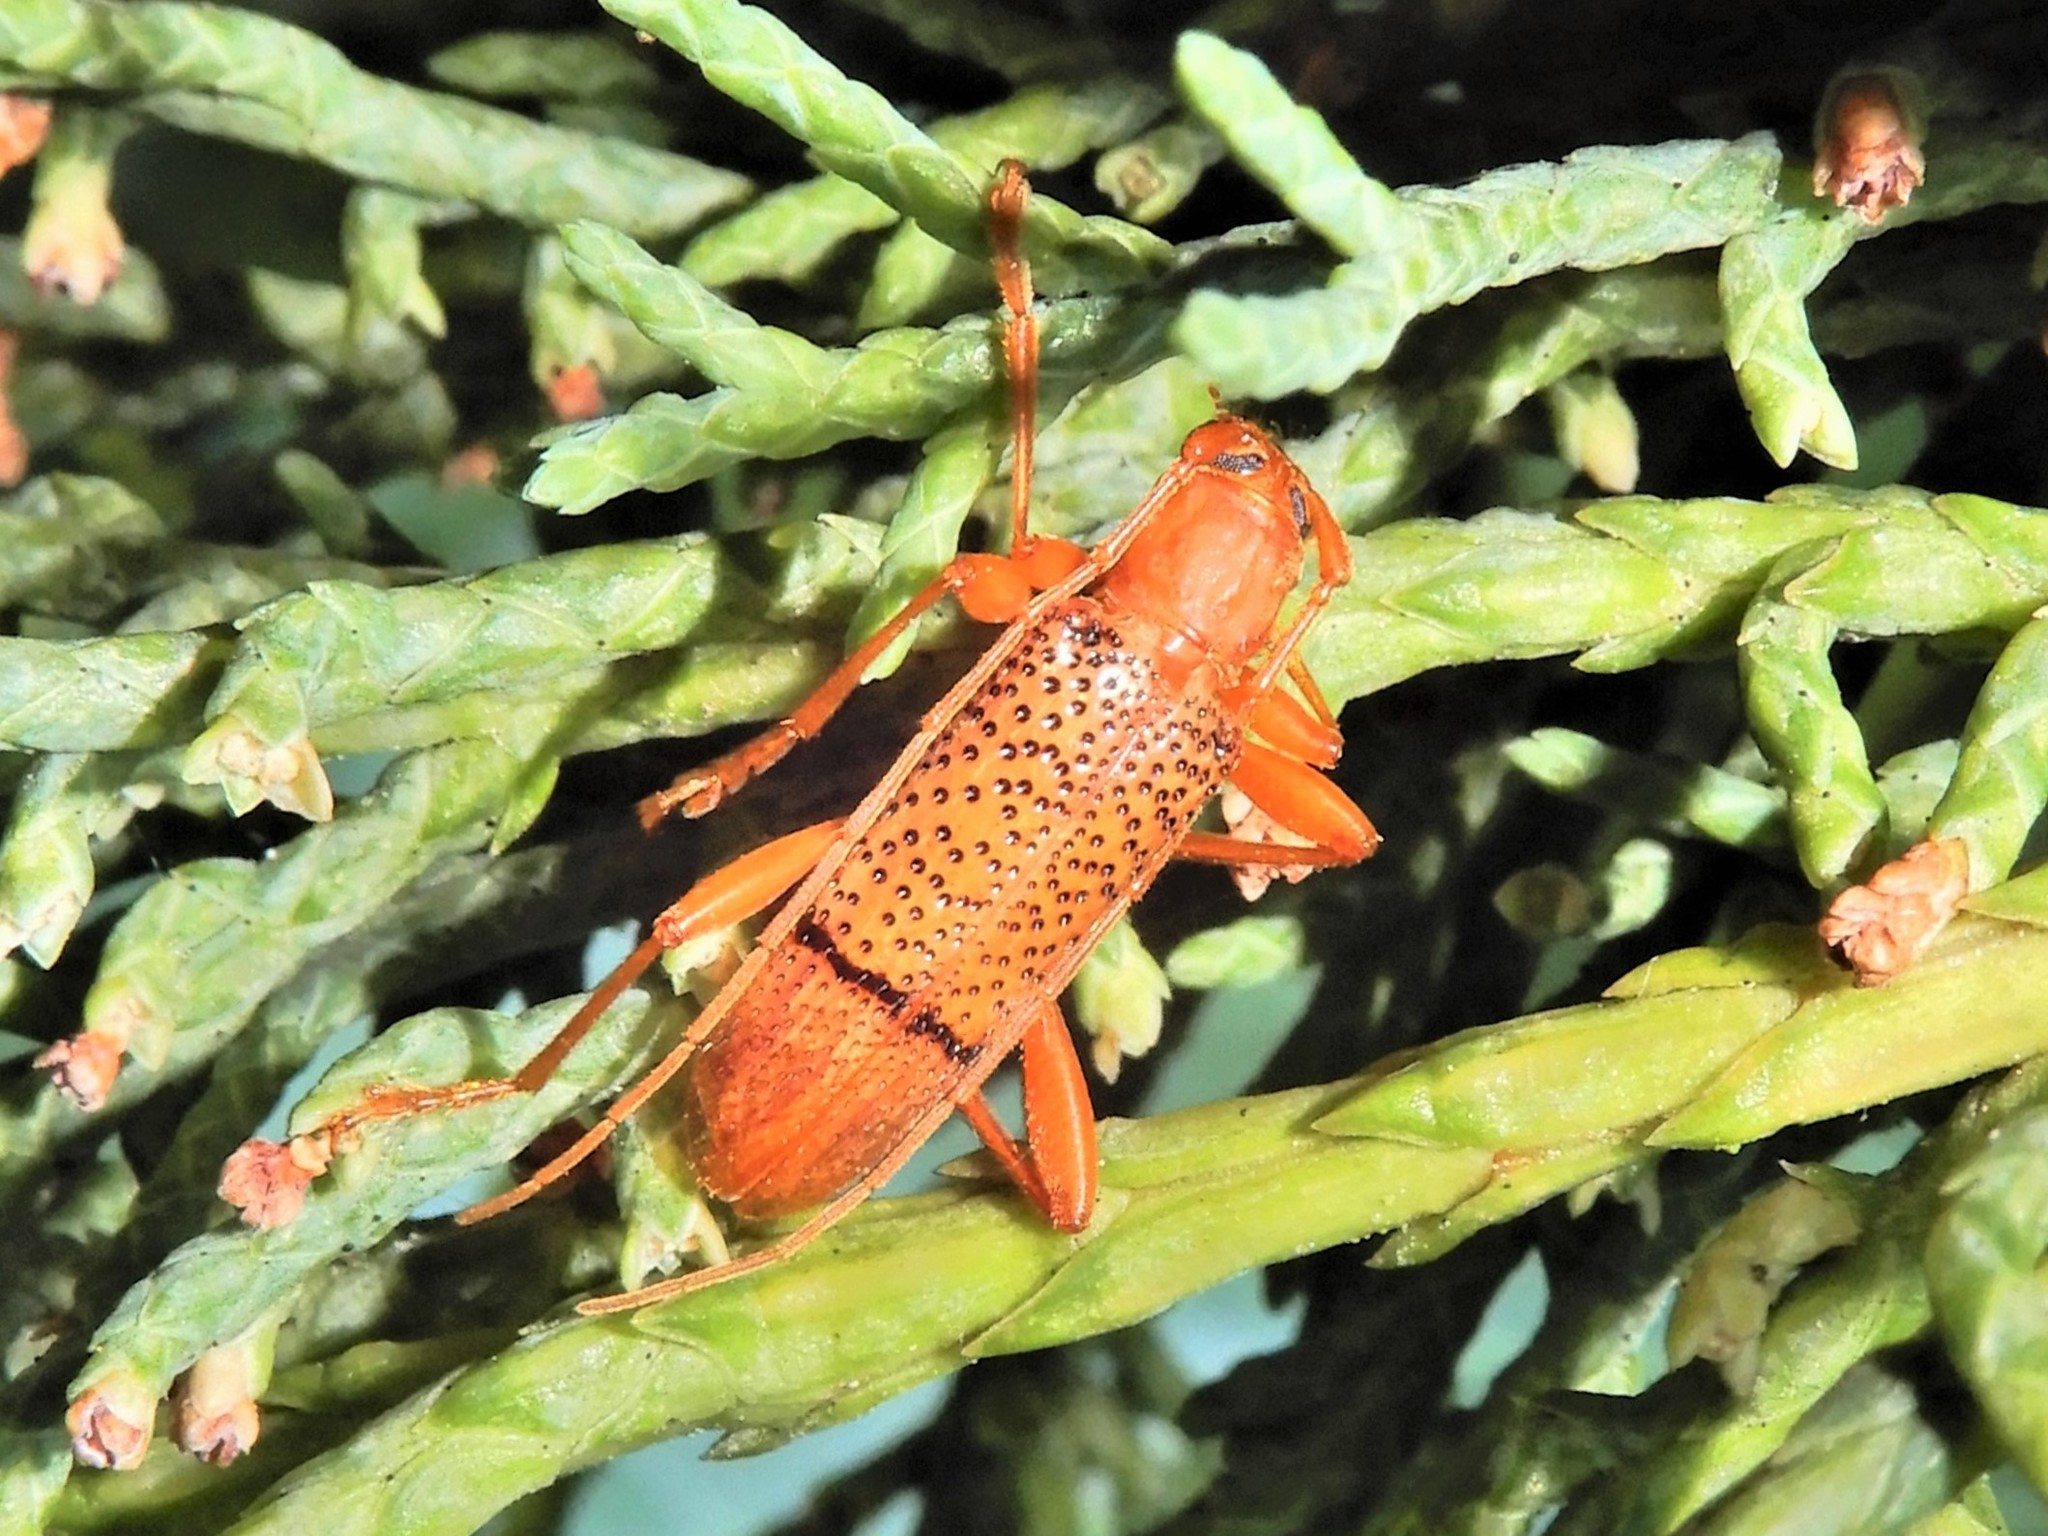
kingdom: Animalia
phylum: Arthropoda
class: Insecta
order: Coleoptera
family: Cerambycidae
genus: Xuthodes
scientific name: Xuthodes punctipennis
